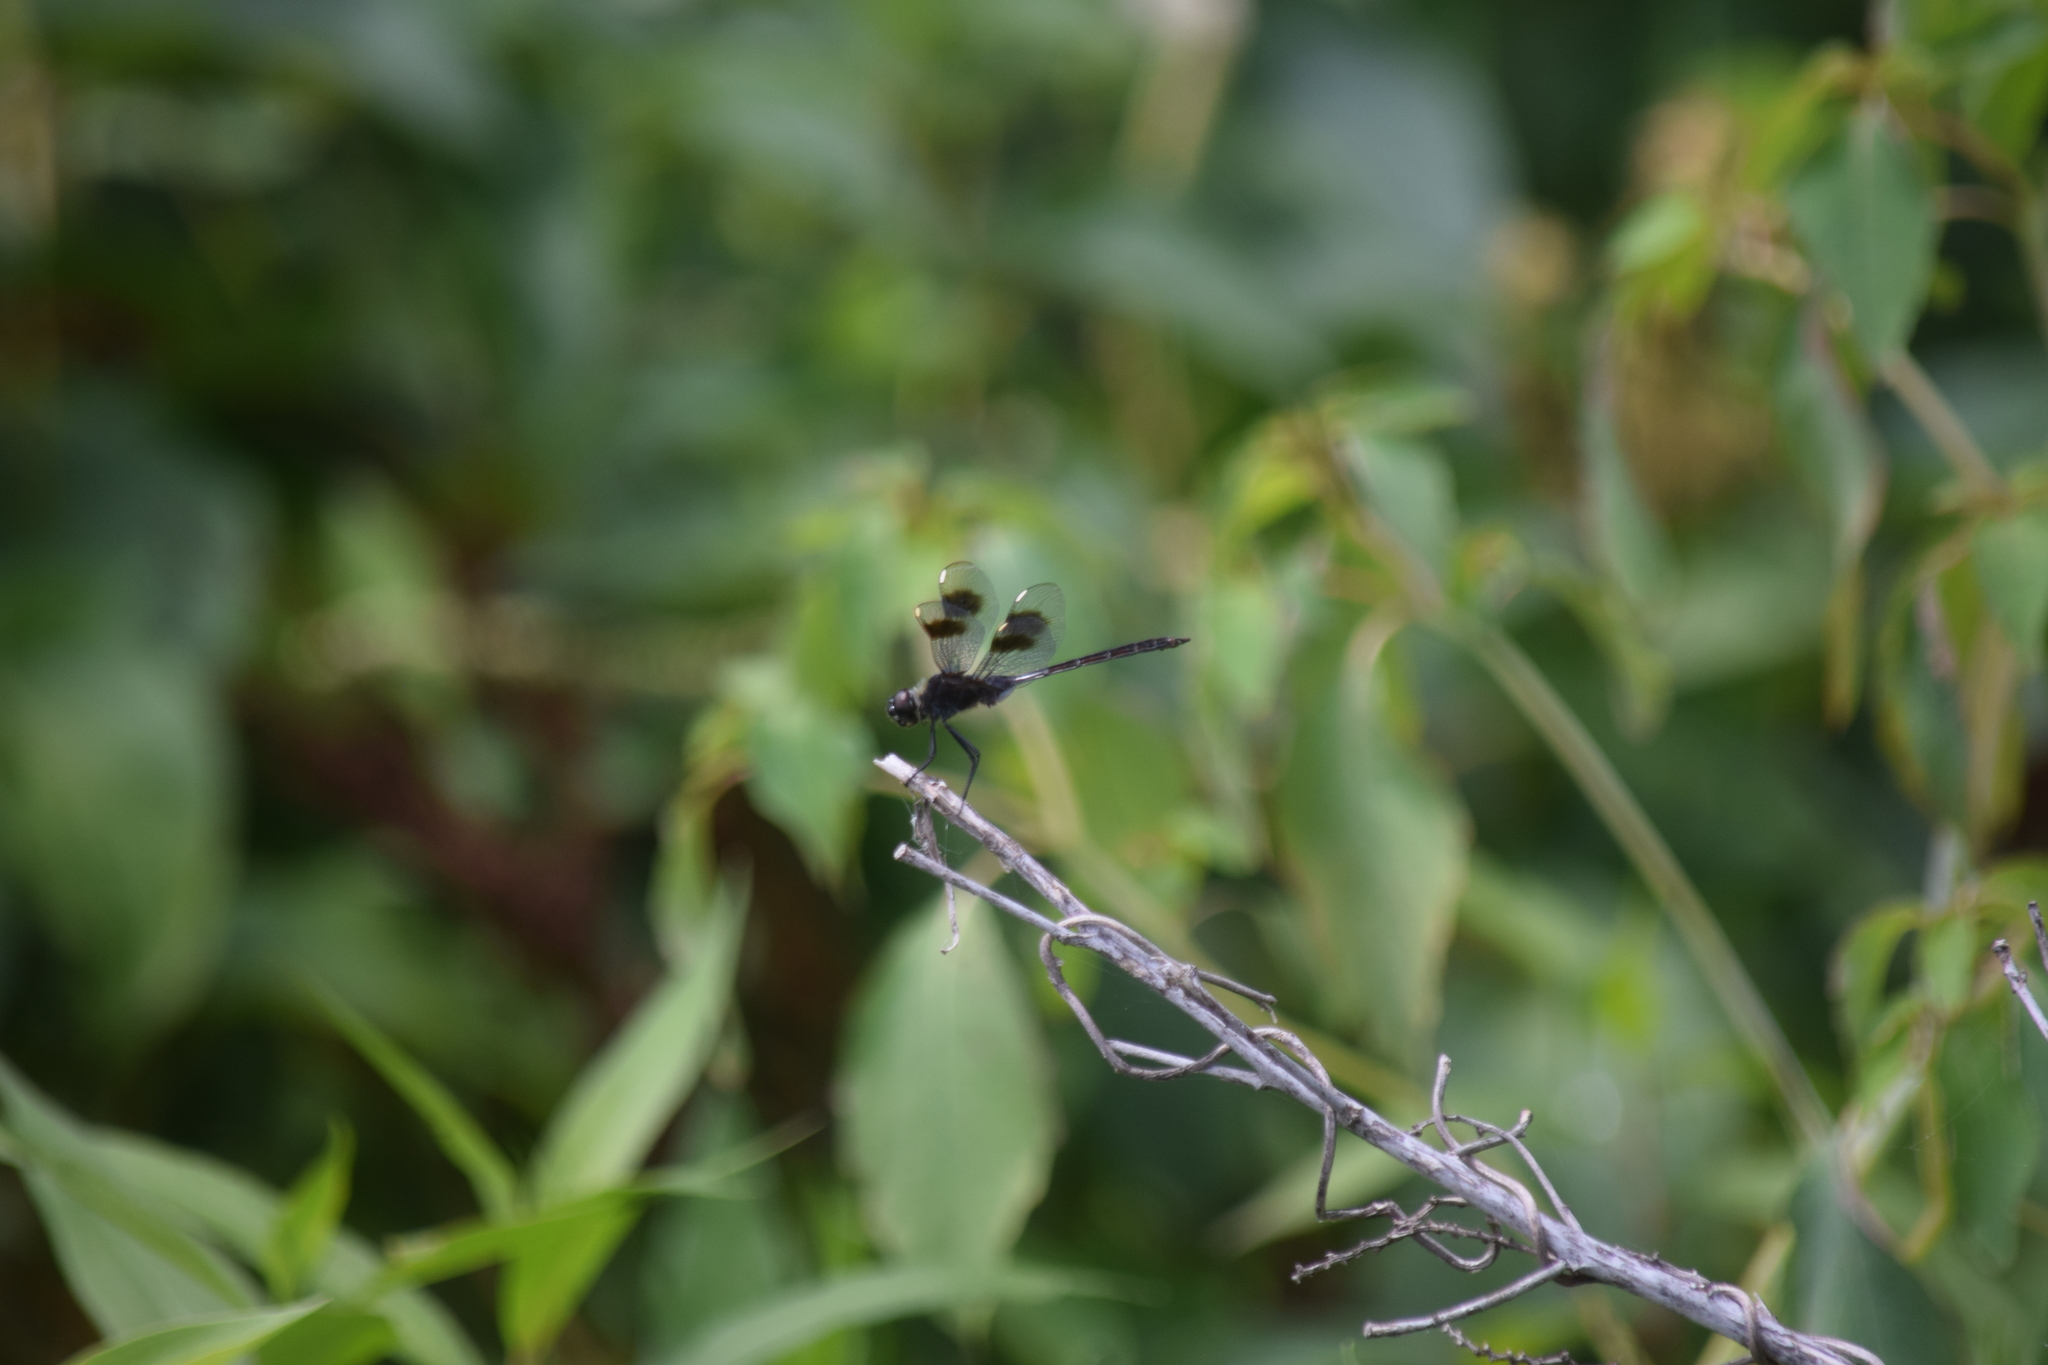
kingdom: Animalia
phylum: Arthropoda
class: Insecta
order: Odonata
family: Libellulidae
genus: Brachymesia
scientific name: Brachymesia gravida
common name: Four-spotted pennant
